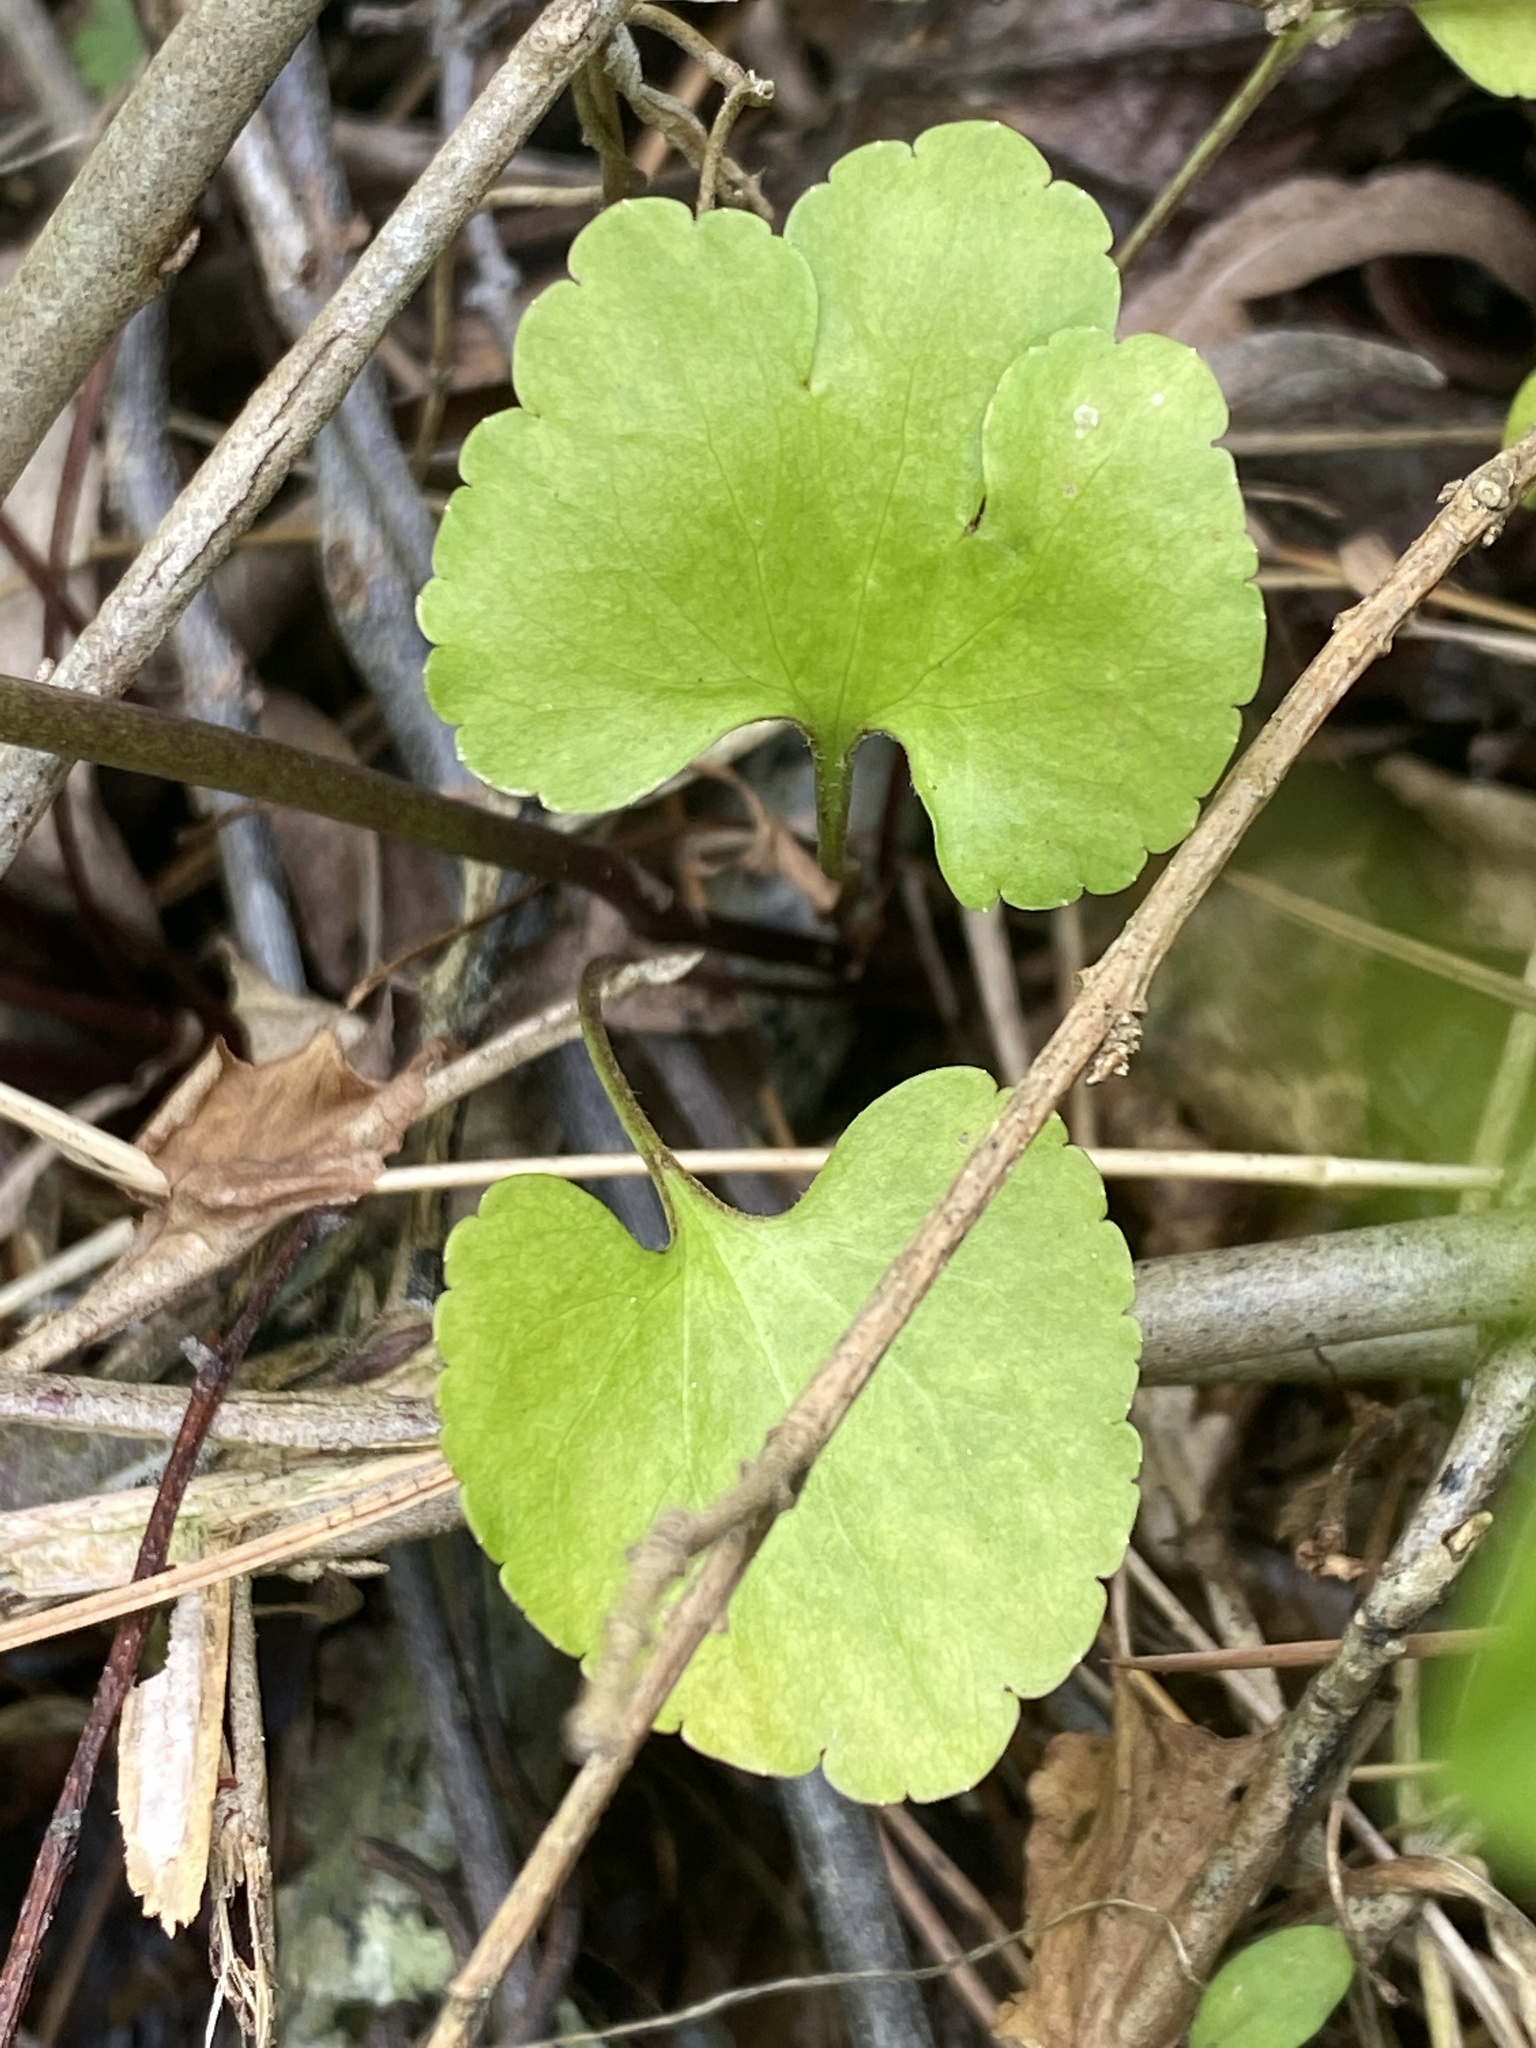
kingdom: Plantae
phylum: Tracheophyta
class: Magnoliopsida
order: Ranunculales
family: Ranunculaceae
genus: Ranunculus
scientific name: Ranunculus abortivus
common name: Early wood buttercup
